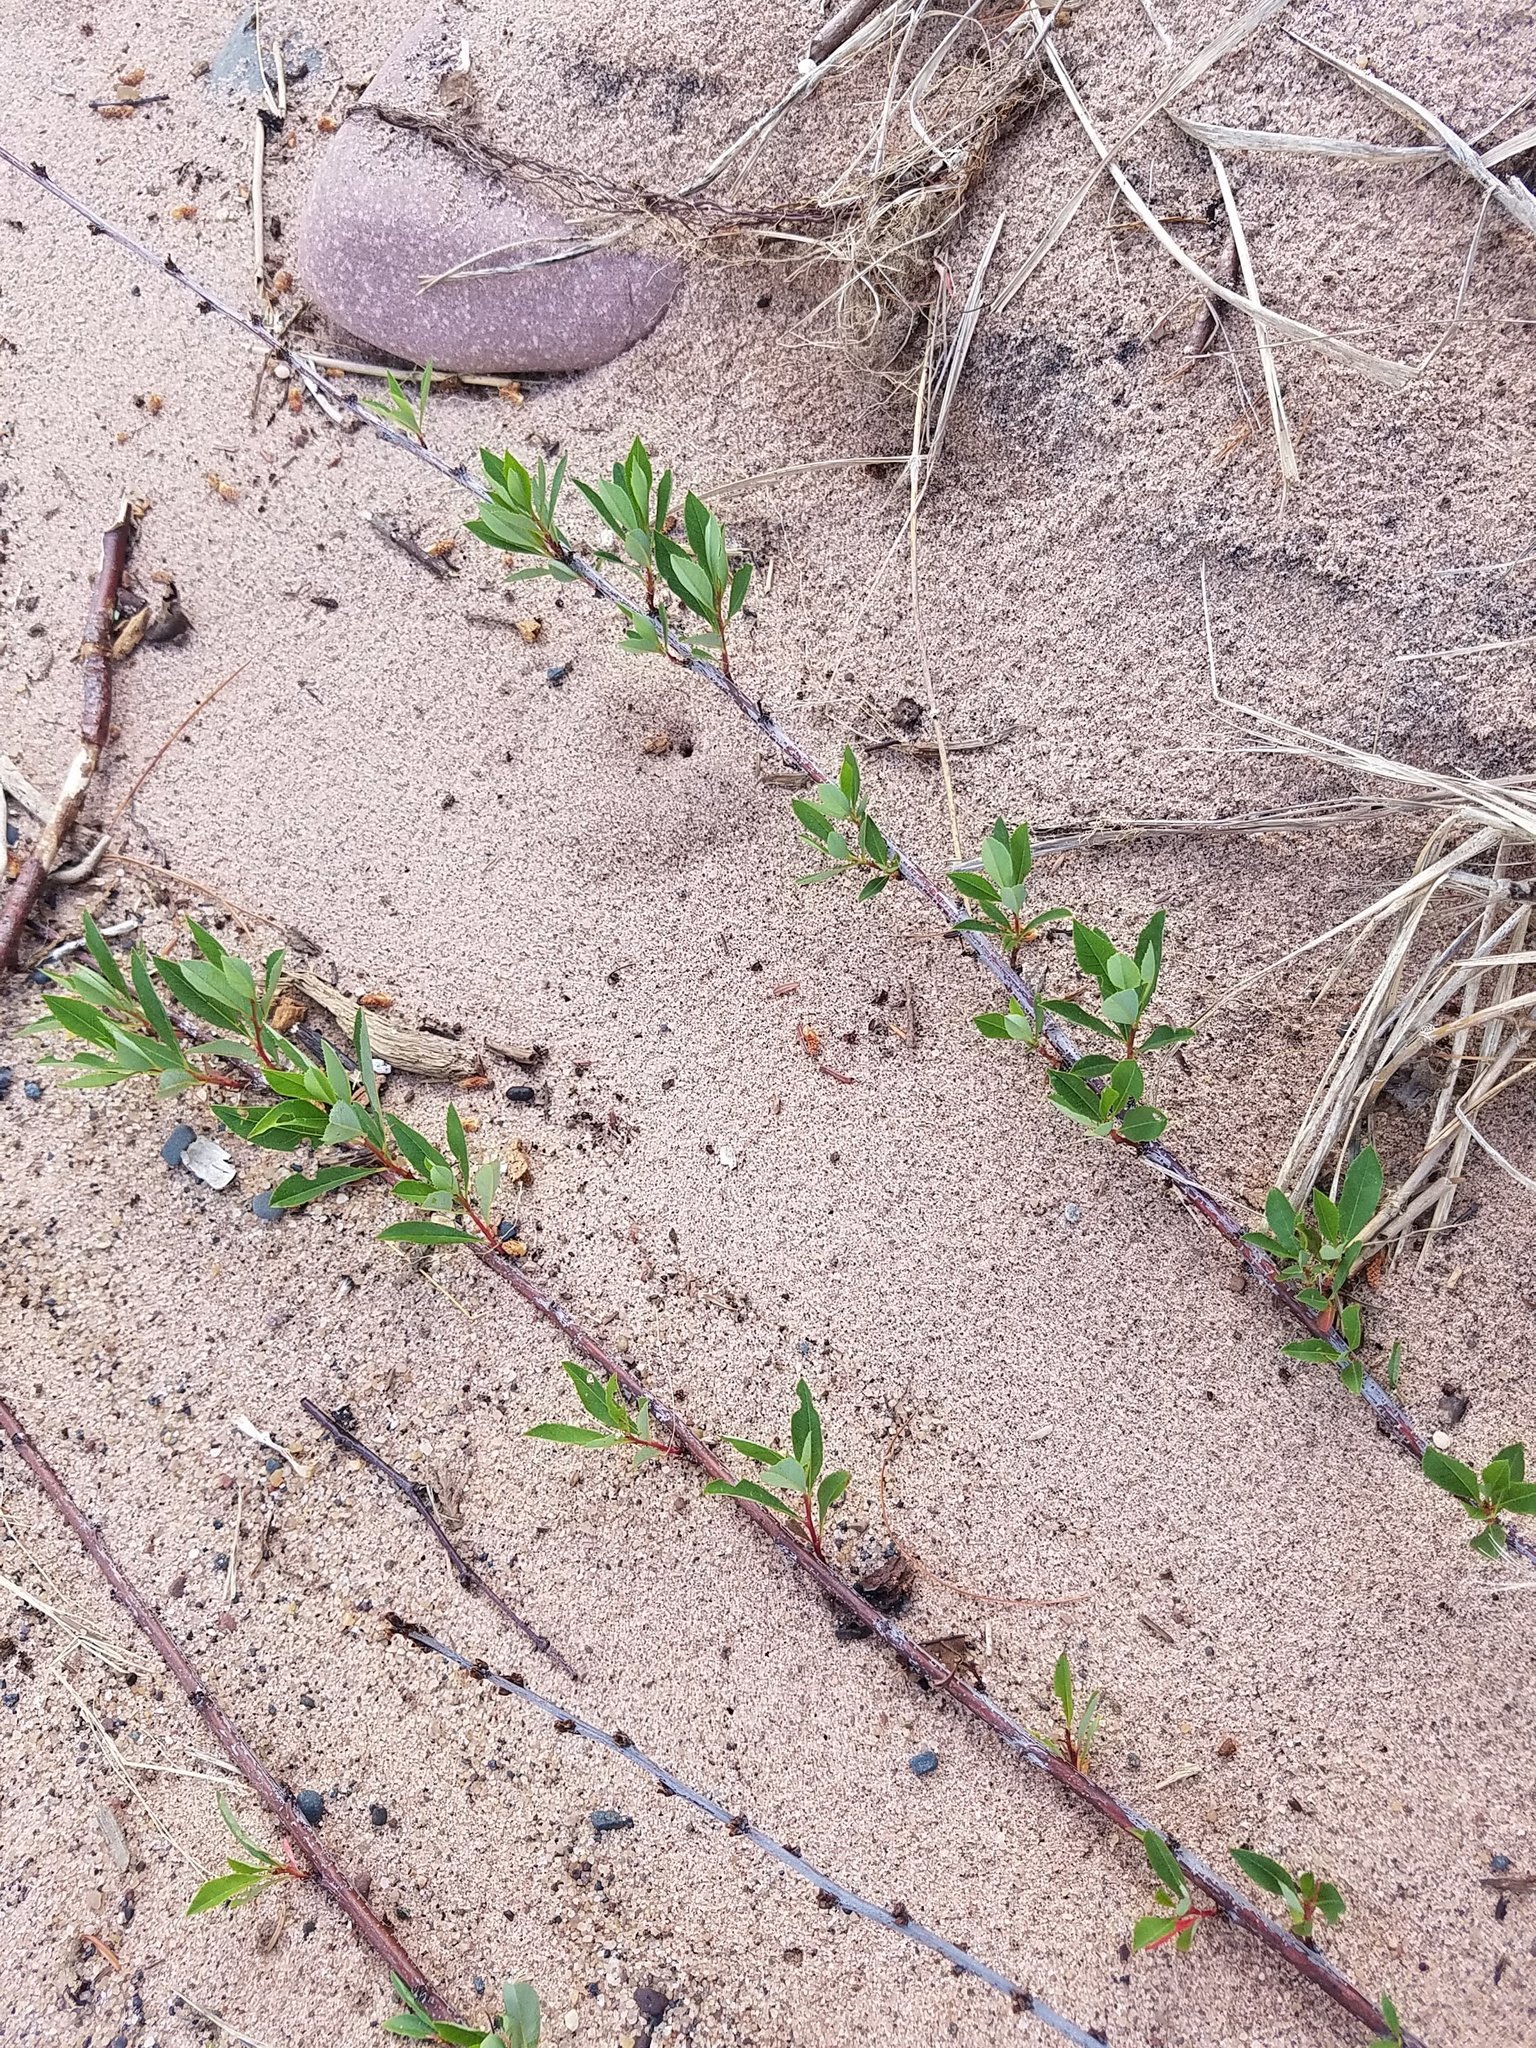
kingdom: Plantae
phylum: Tracheophyta
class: Magnoliopsida
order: Rosales
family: Rosaceae
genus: Prunus
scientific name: Prunus pumila
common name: Dwarf cherry
